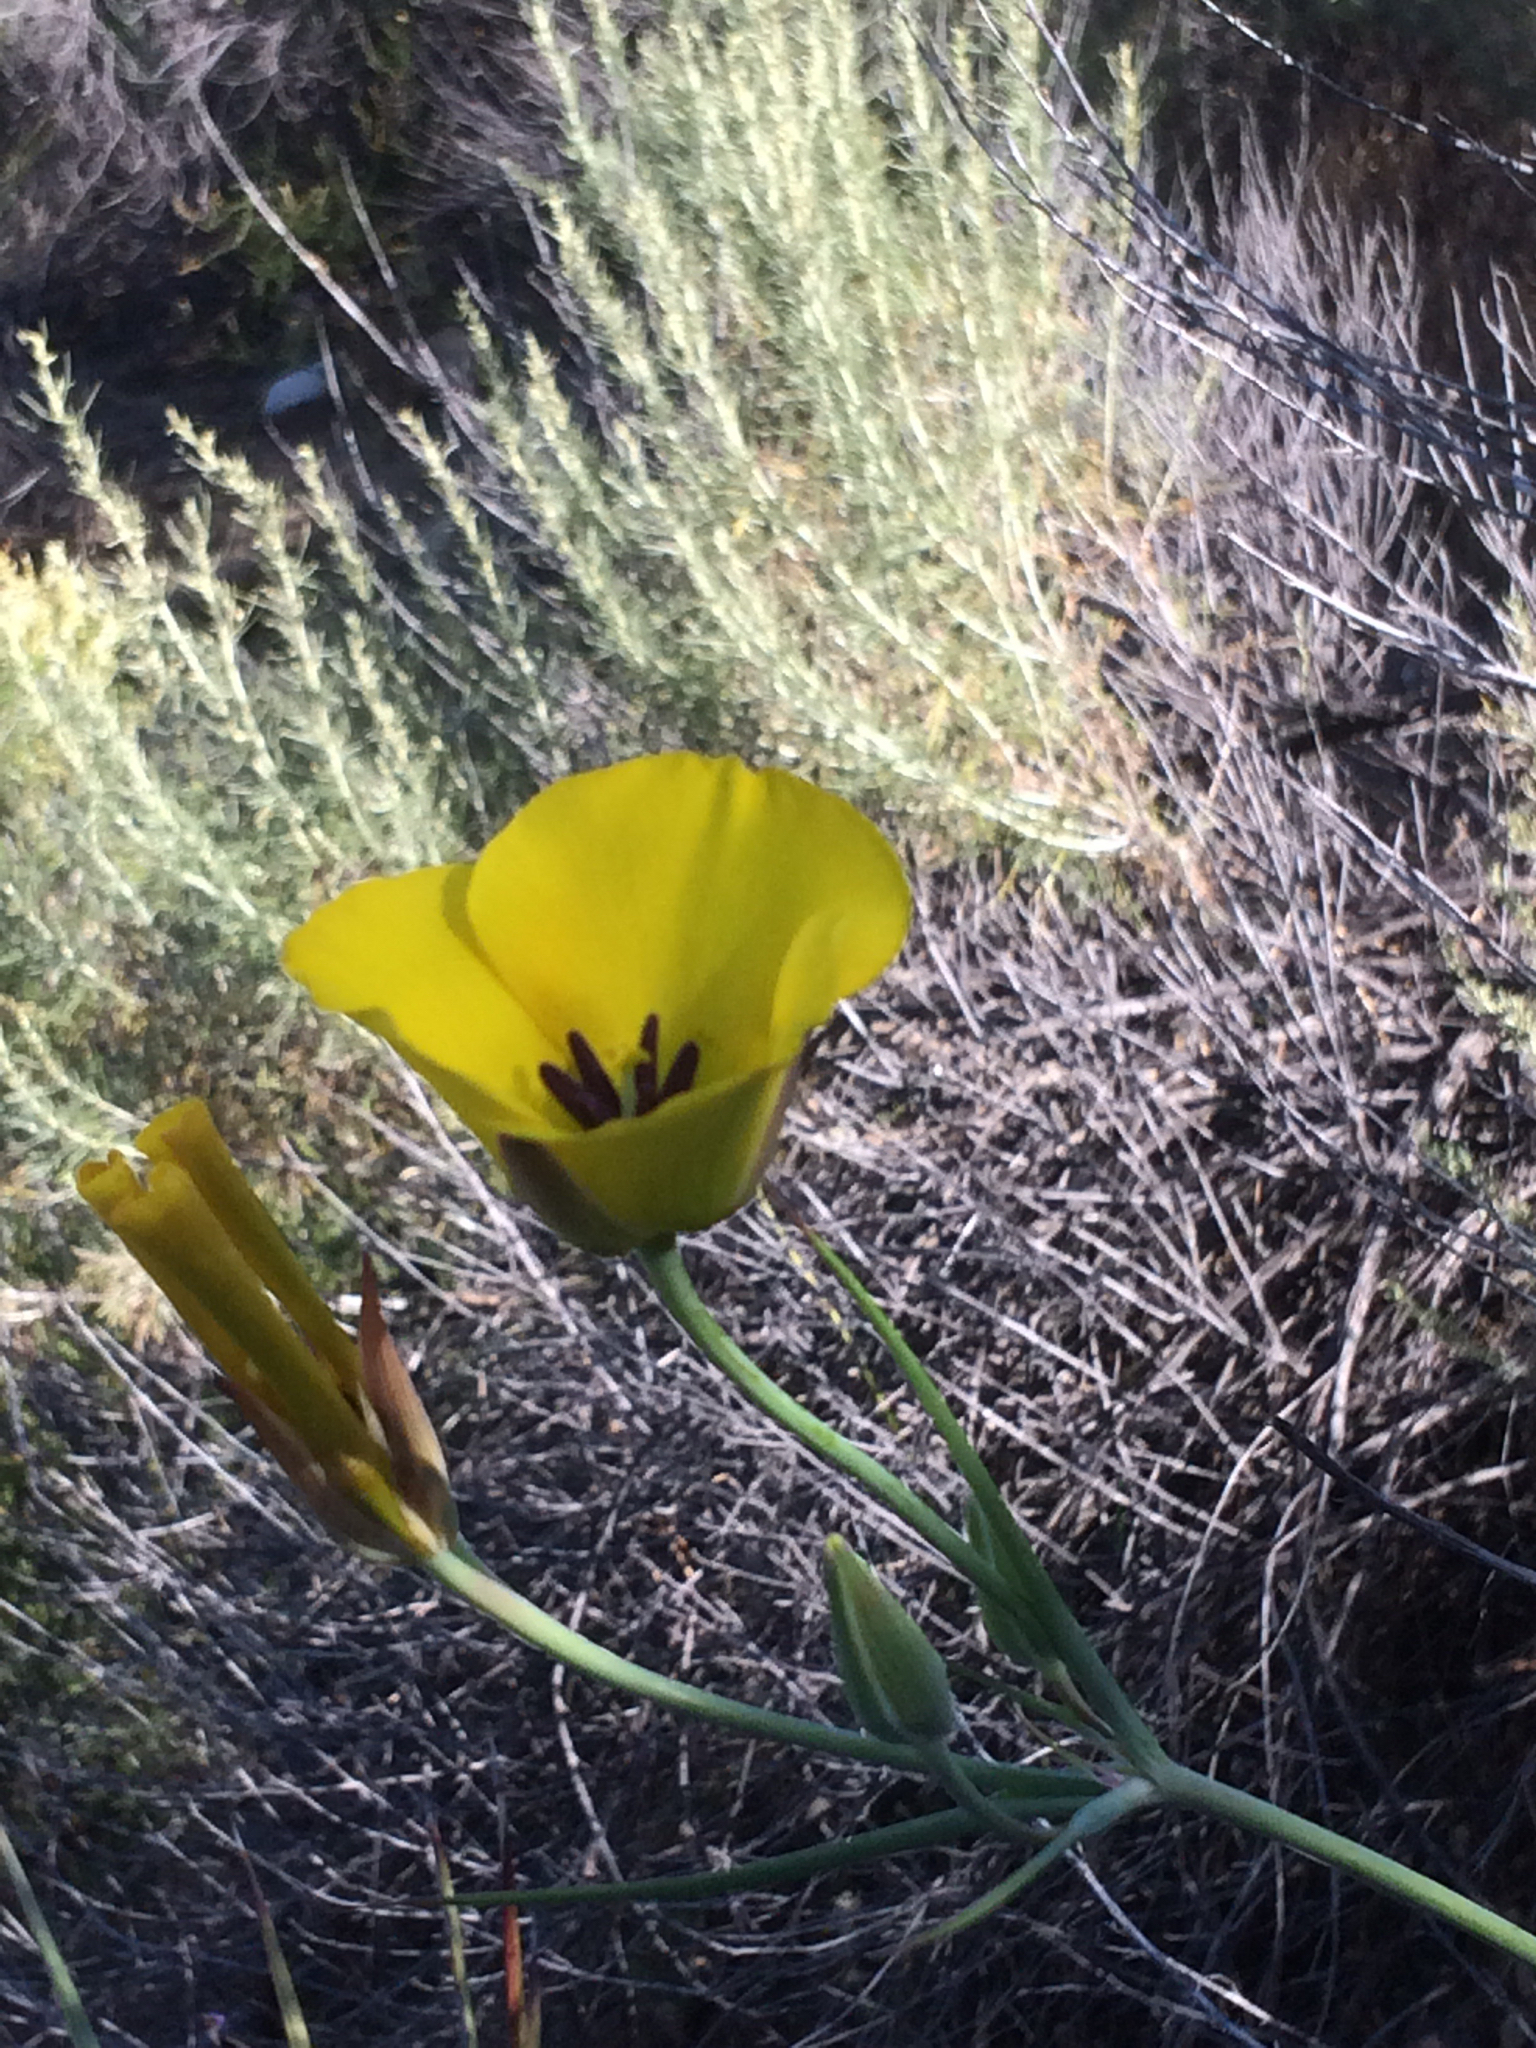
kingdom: Plantae
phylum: Tracheophyta
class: Liliopsida
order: Liliales
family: Liliaceae
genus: Calochortus
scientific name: Calochortus clavatus
